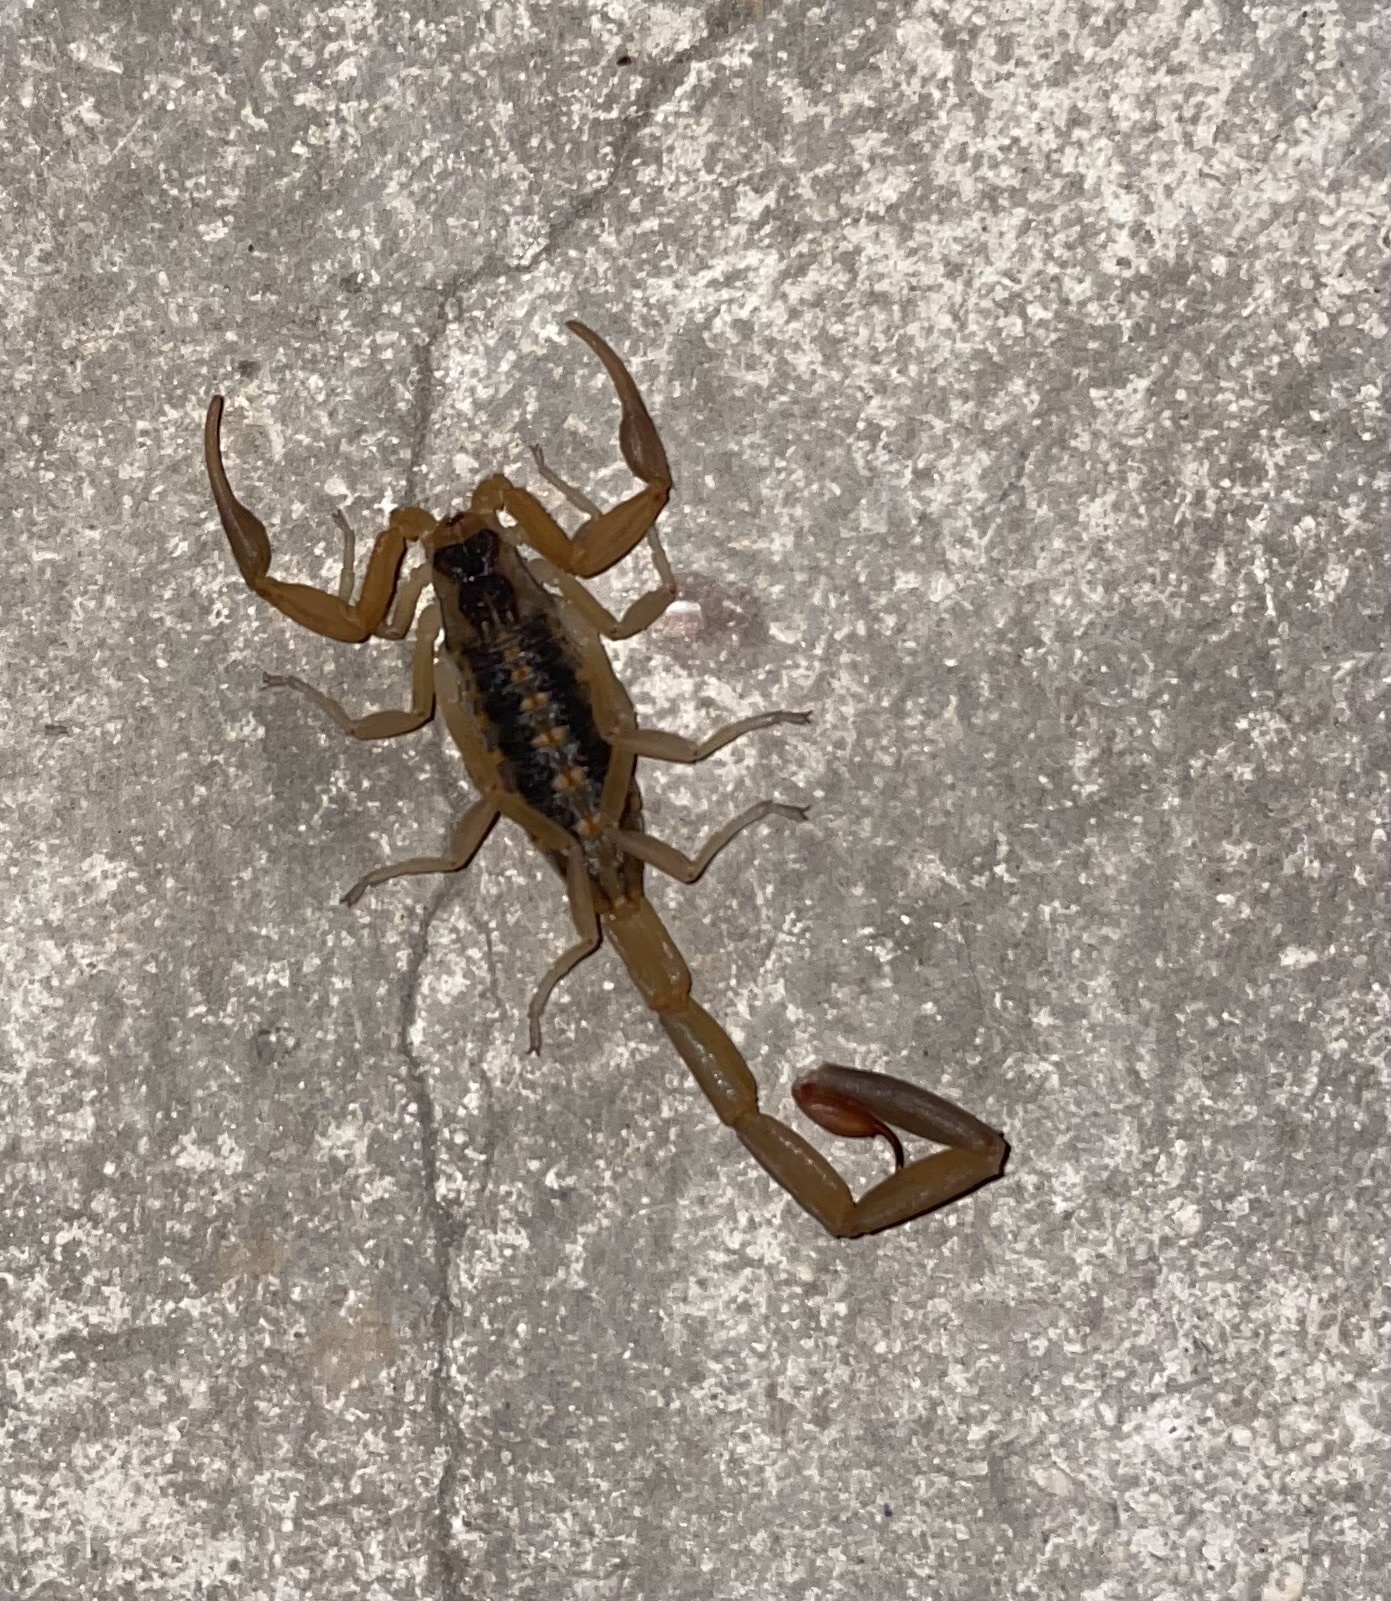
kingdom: Animalia
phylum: Arthropoda
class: Arachnida
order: Scorpiones
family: Buthidae
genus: Centruroides
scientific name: Centruroides vittatus
